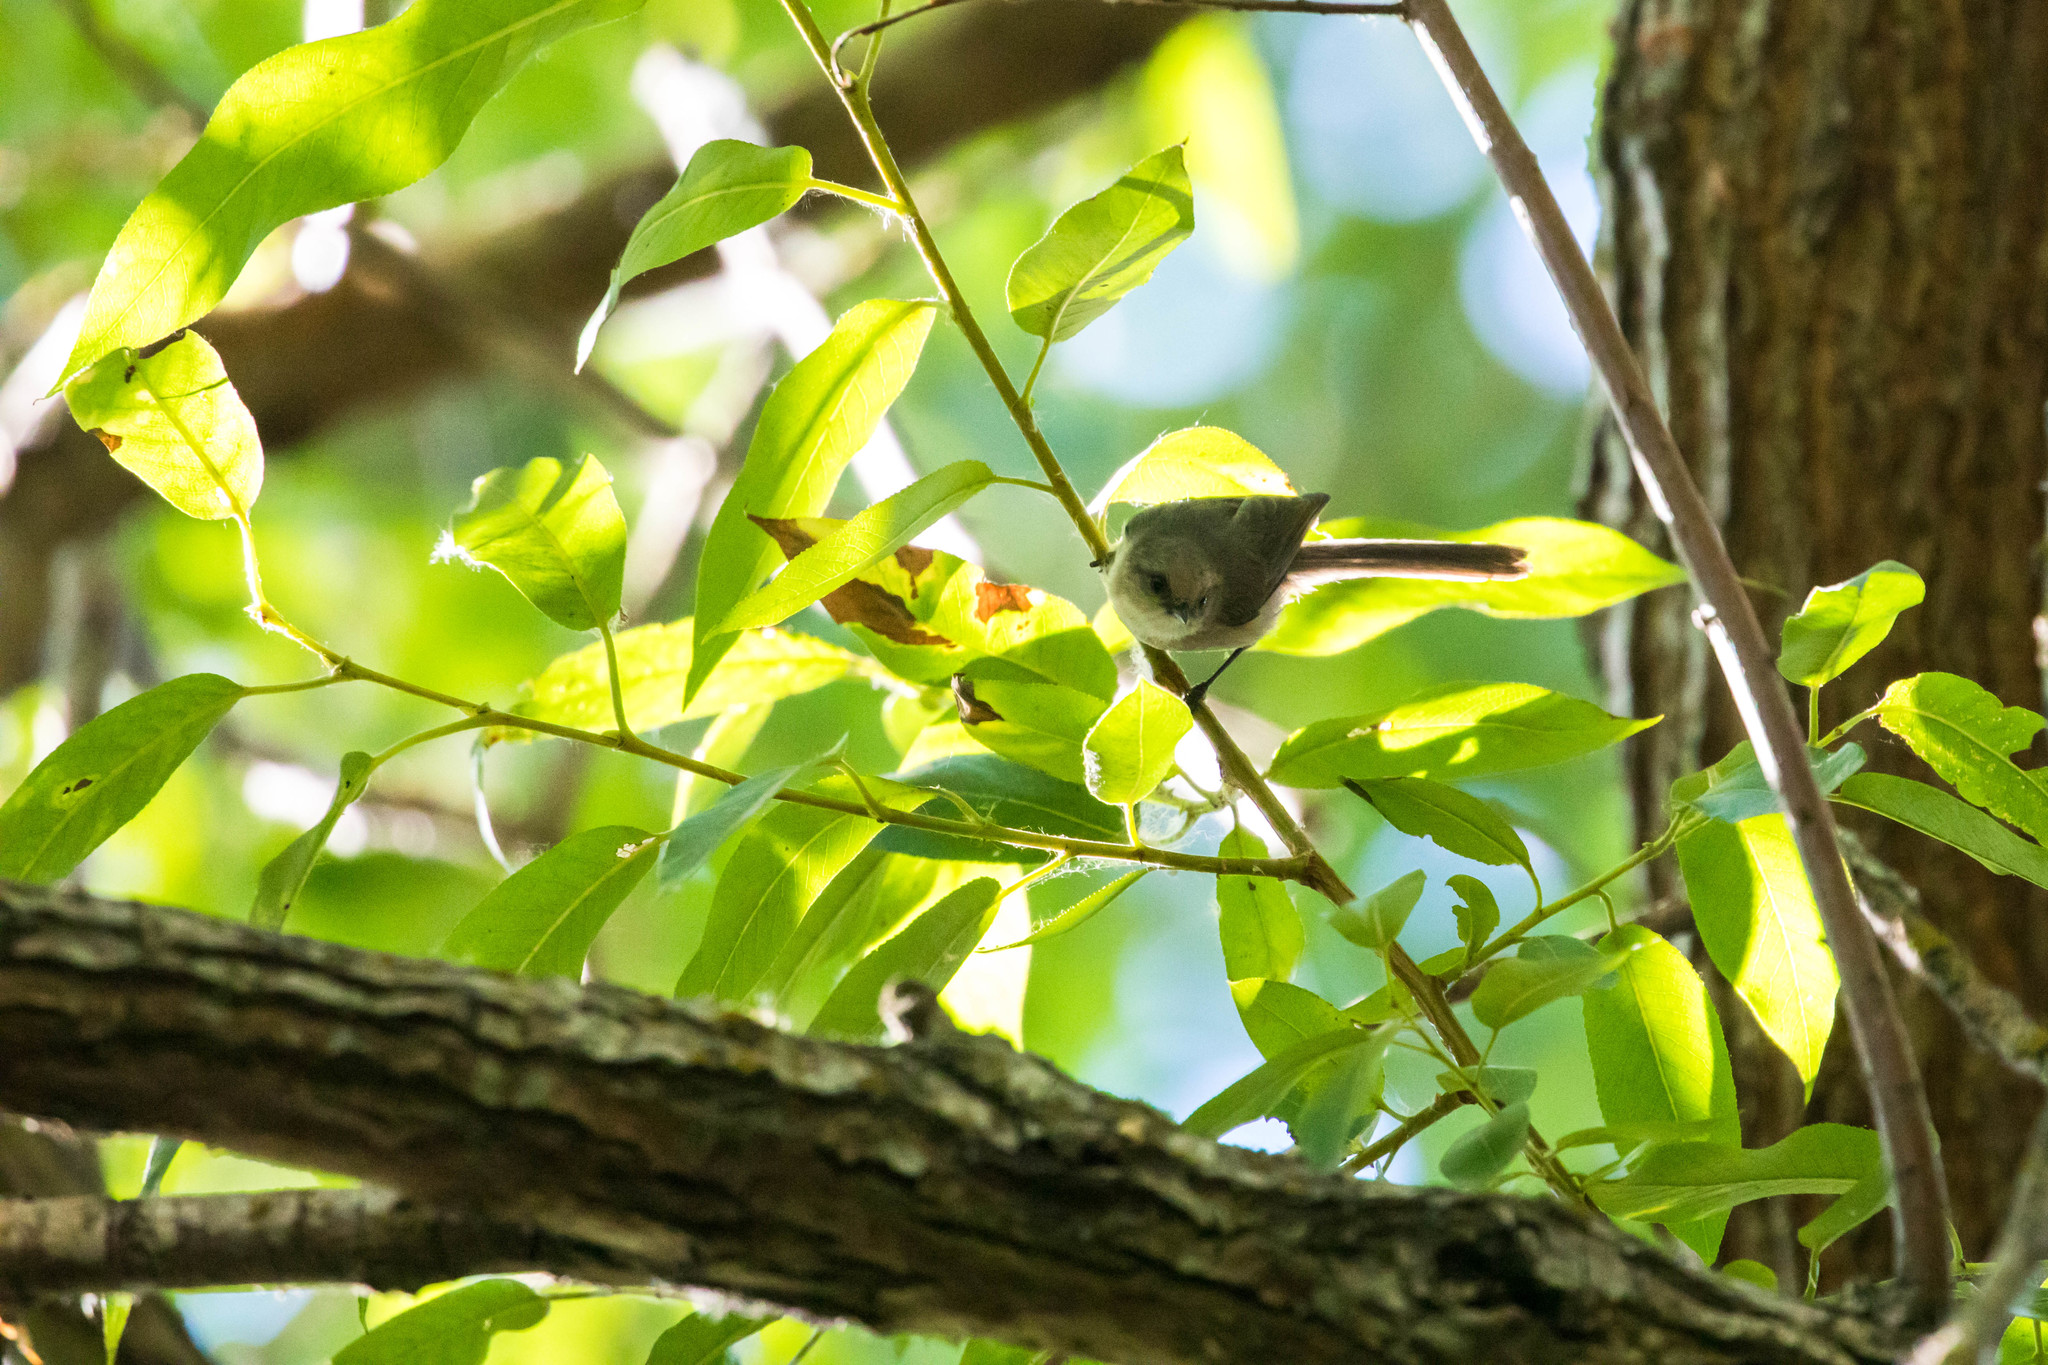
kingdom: Animalia
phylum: Chordata
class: Aves
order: Passeriformes
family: Aegithalidae
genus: Psaltriparus
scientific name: Psaltriparus minimus
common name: American bushtit
